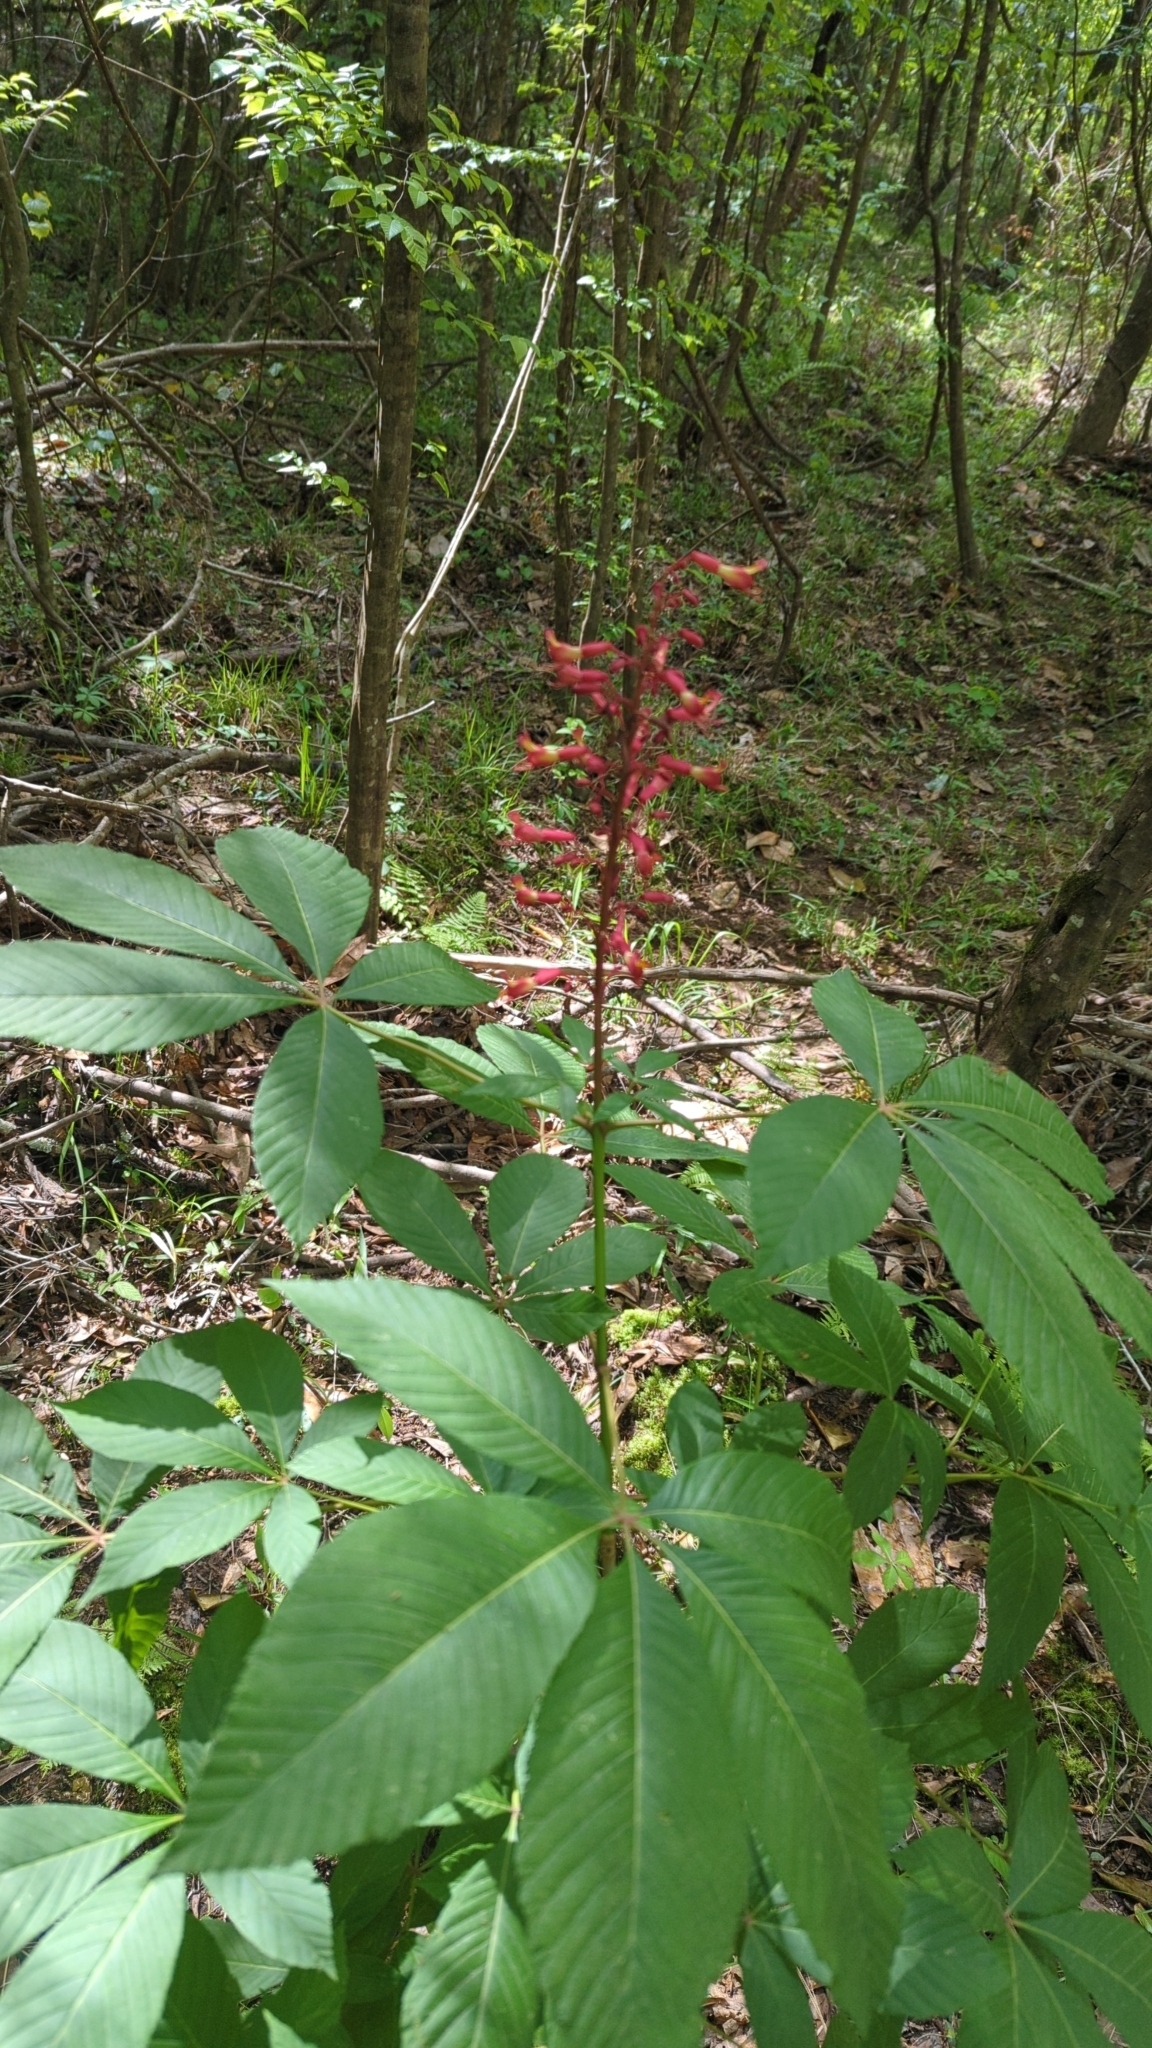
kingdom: Plantae
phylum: Tracheophyta
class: Magnoliopsida
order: Sapindales
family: Sapindaceae
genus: Aesculus
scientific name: Aesculus pavia
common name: Red buckeye
